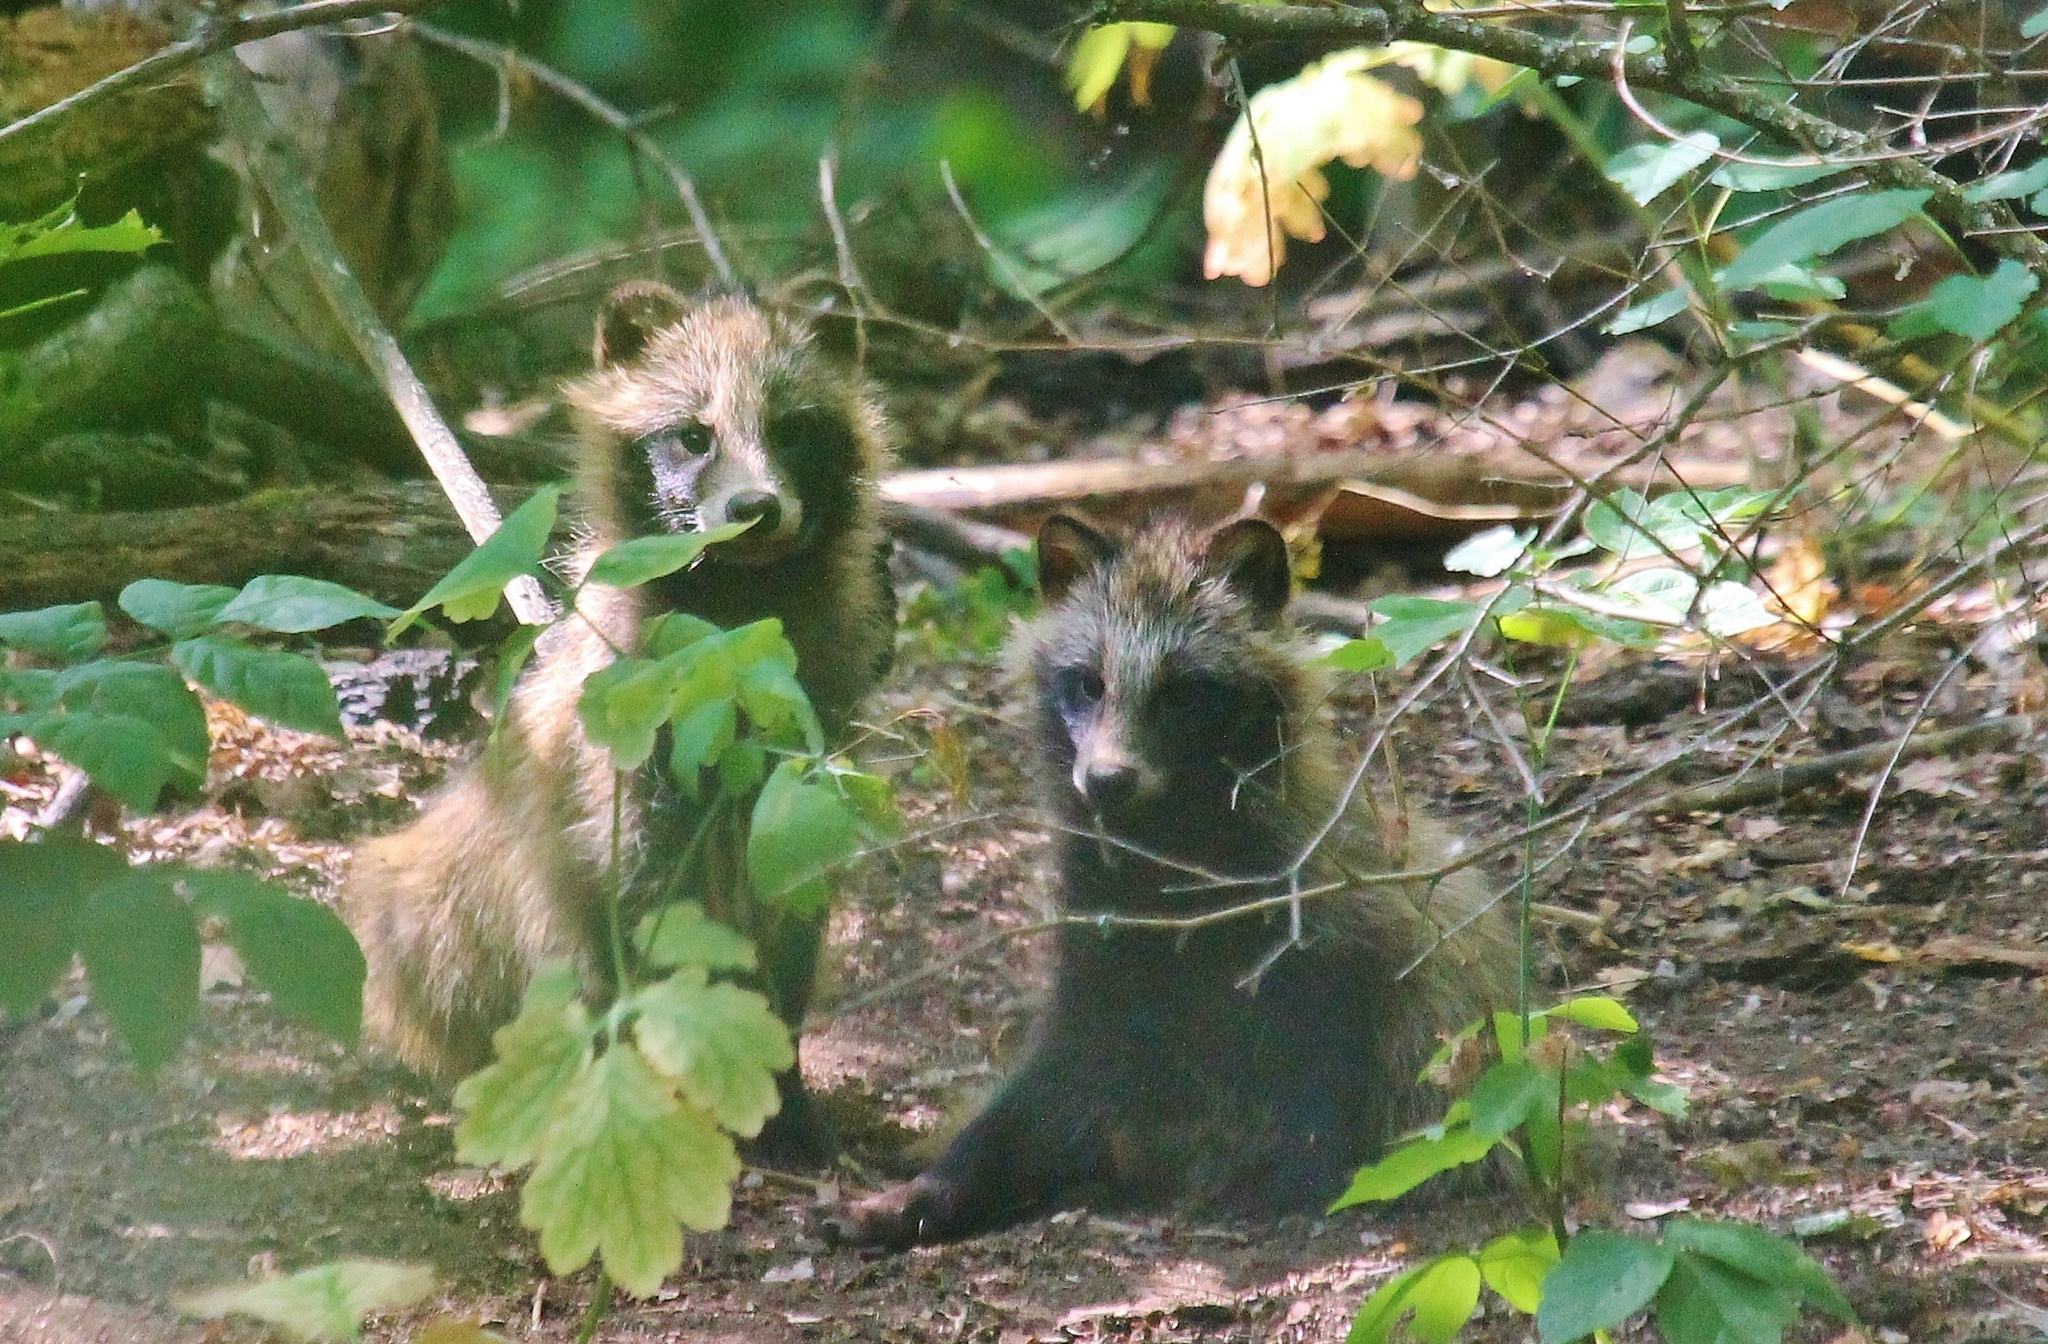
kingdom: Animalia
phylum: Chordata
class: Mammalia
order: Carnivora
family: Canidae
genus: Nyctereutes
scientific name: Nyctereutes procyonoides
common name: Raccoon dog
